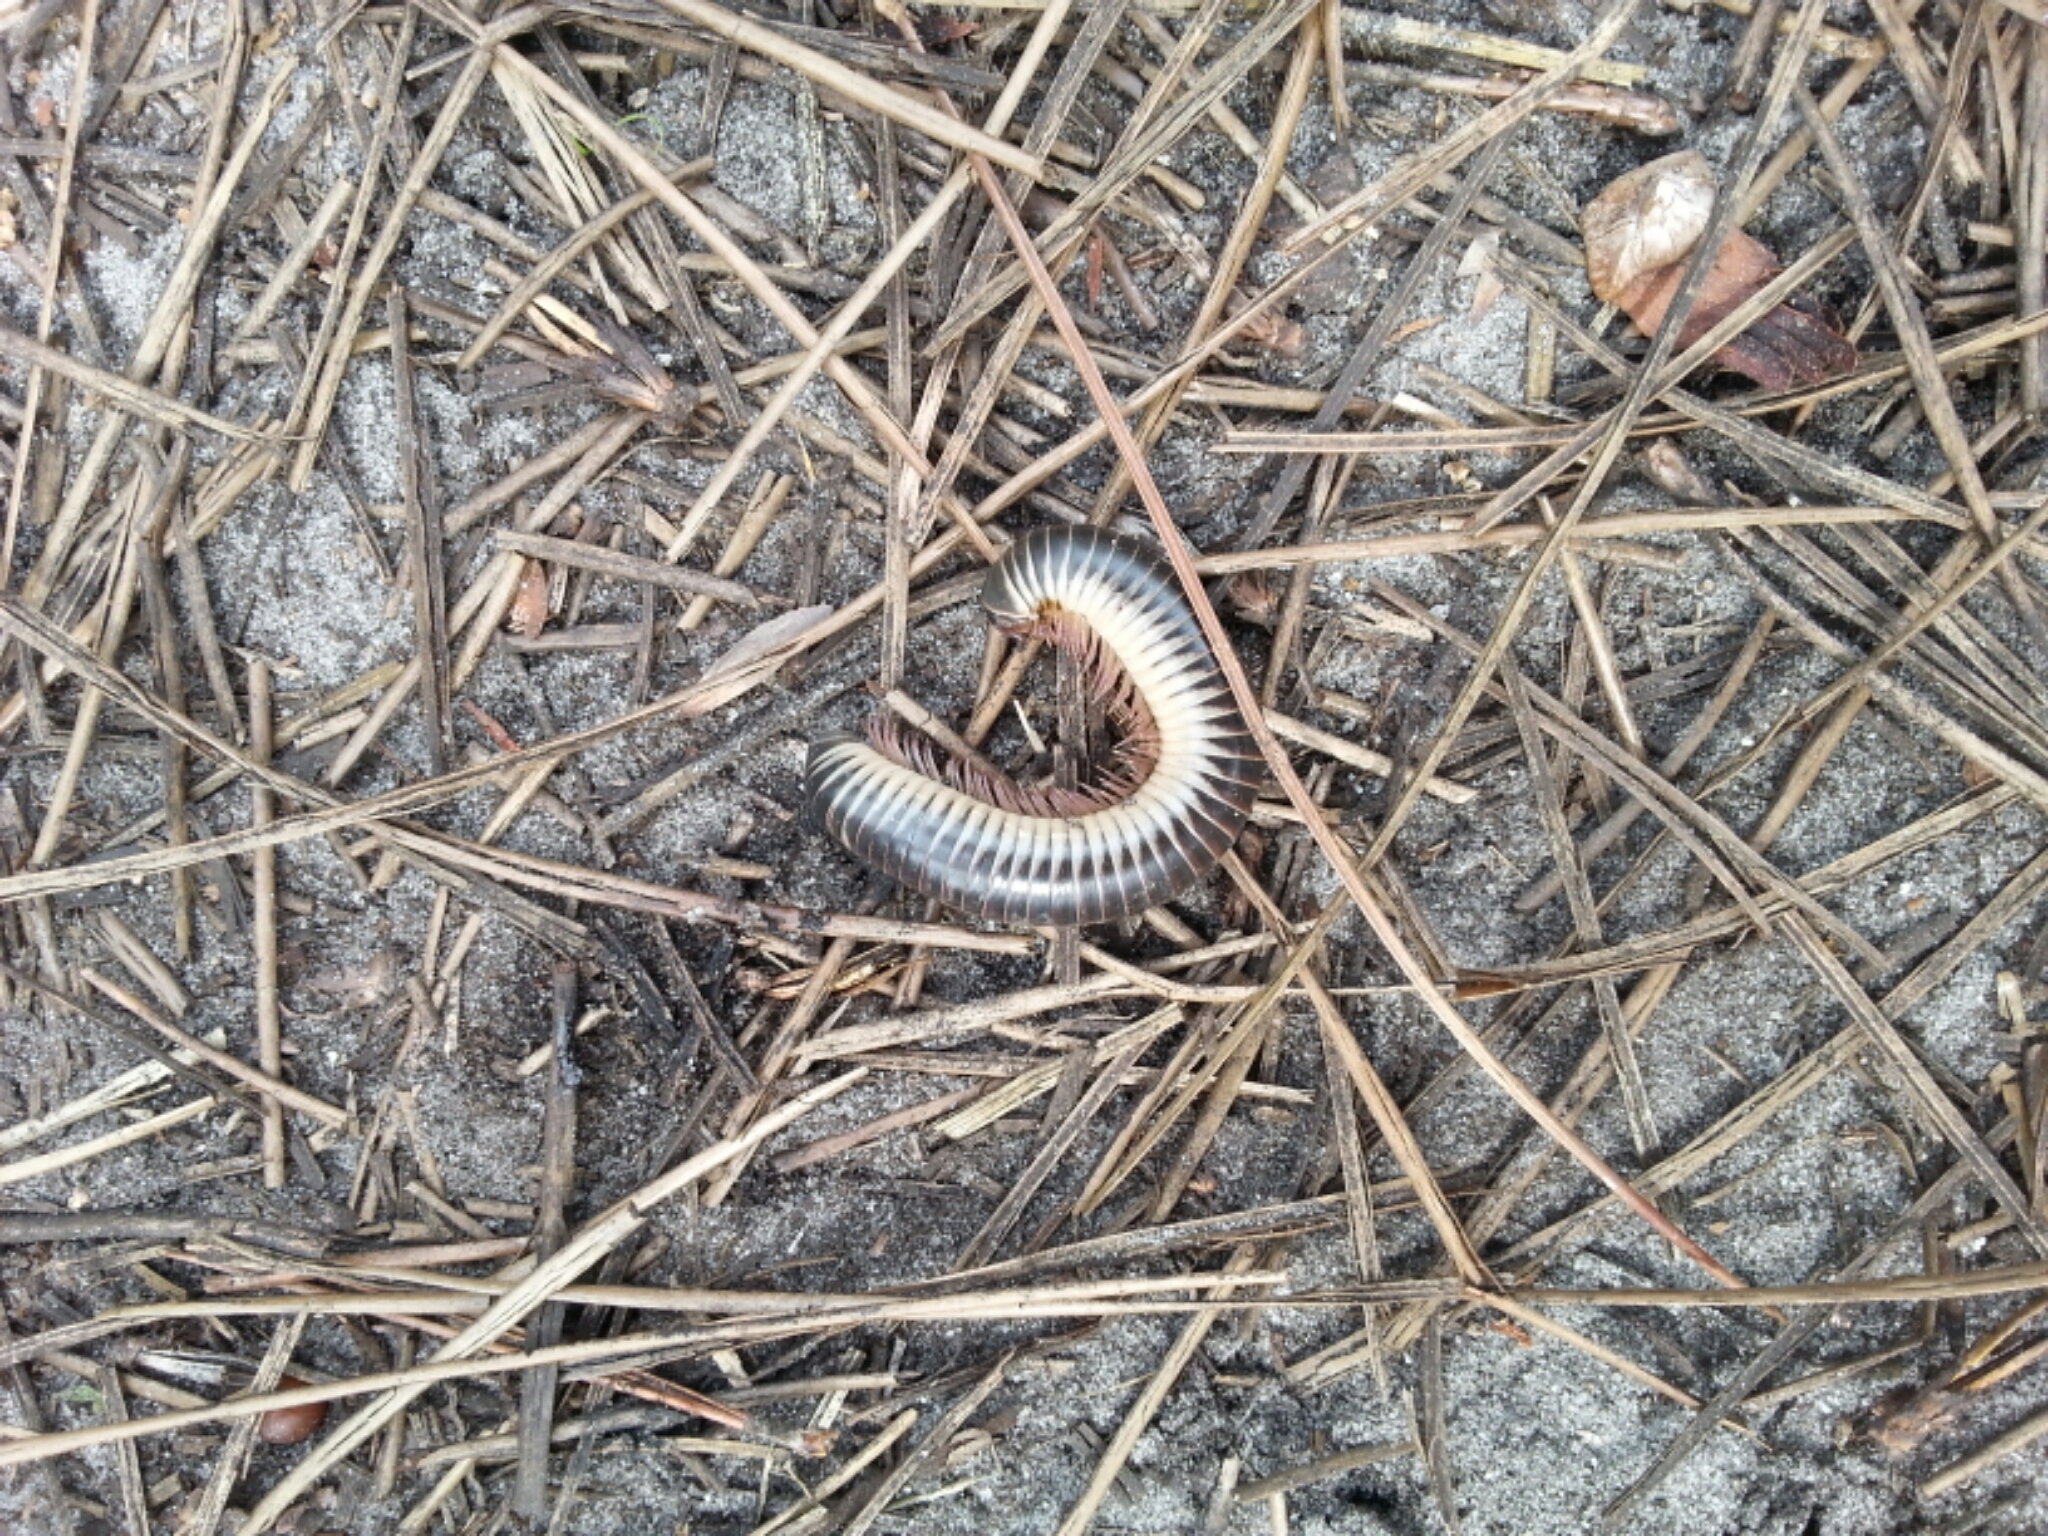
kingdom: Animalia
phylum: Arthropoda
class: Diplopoda
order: Spirobolida
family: Spirobolidae
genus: Chicobolus
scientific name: Chicobolus spinigerus
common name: Florida ivory millipede
